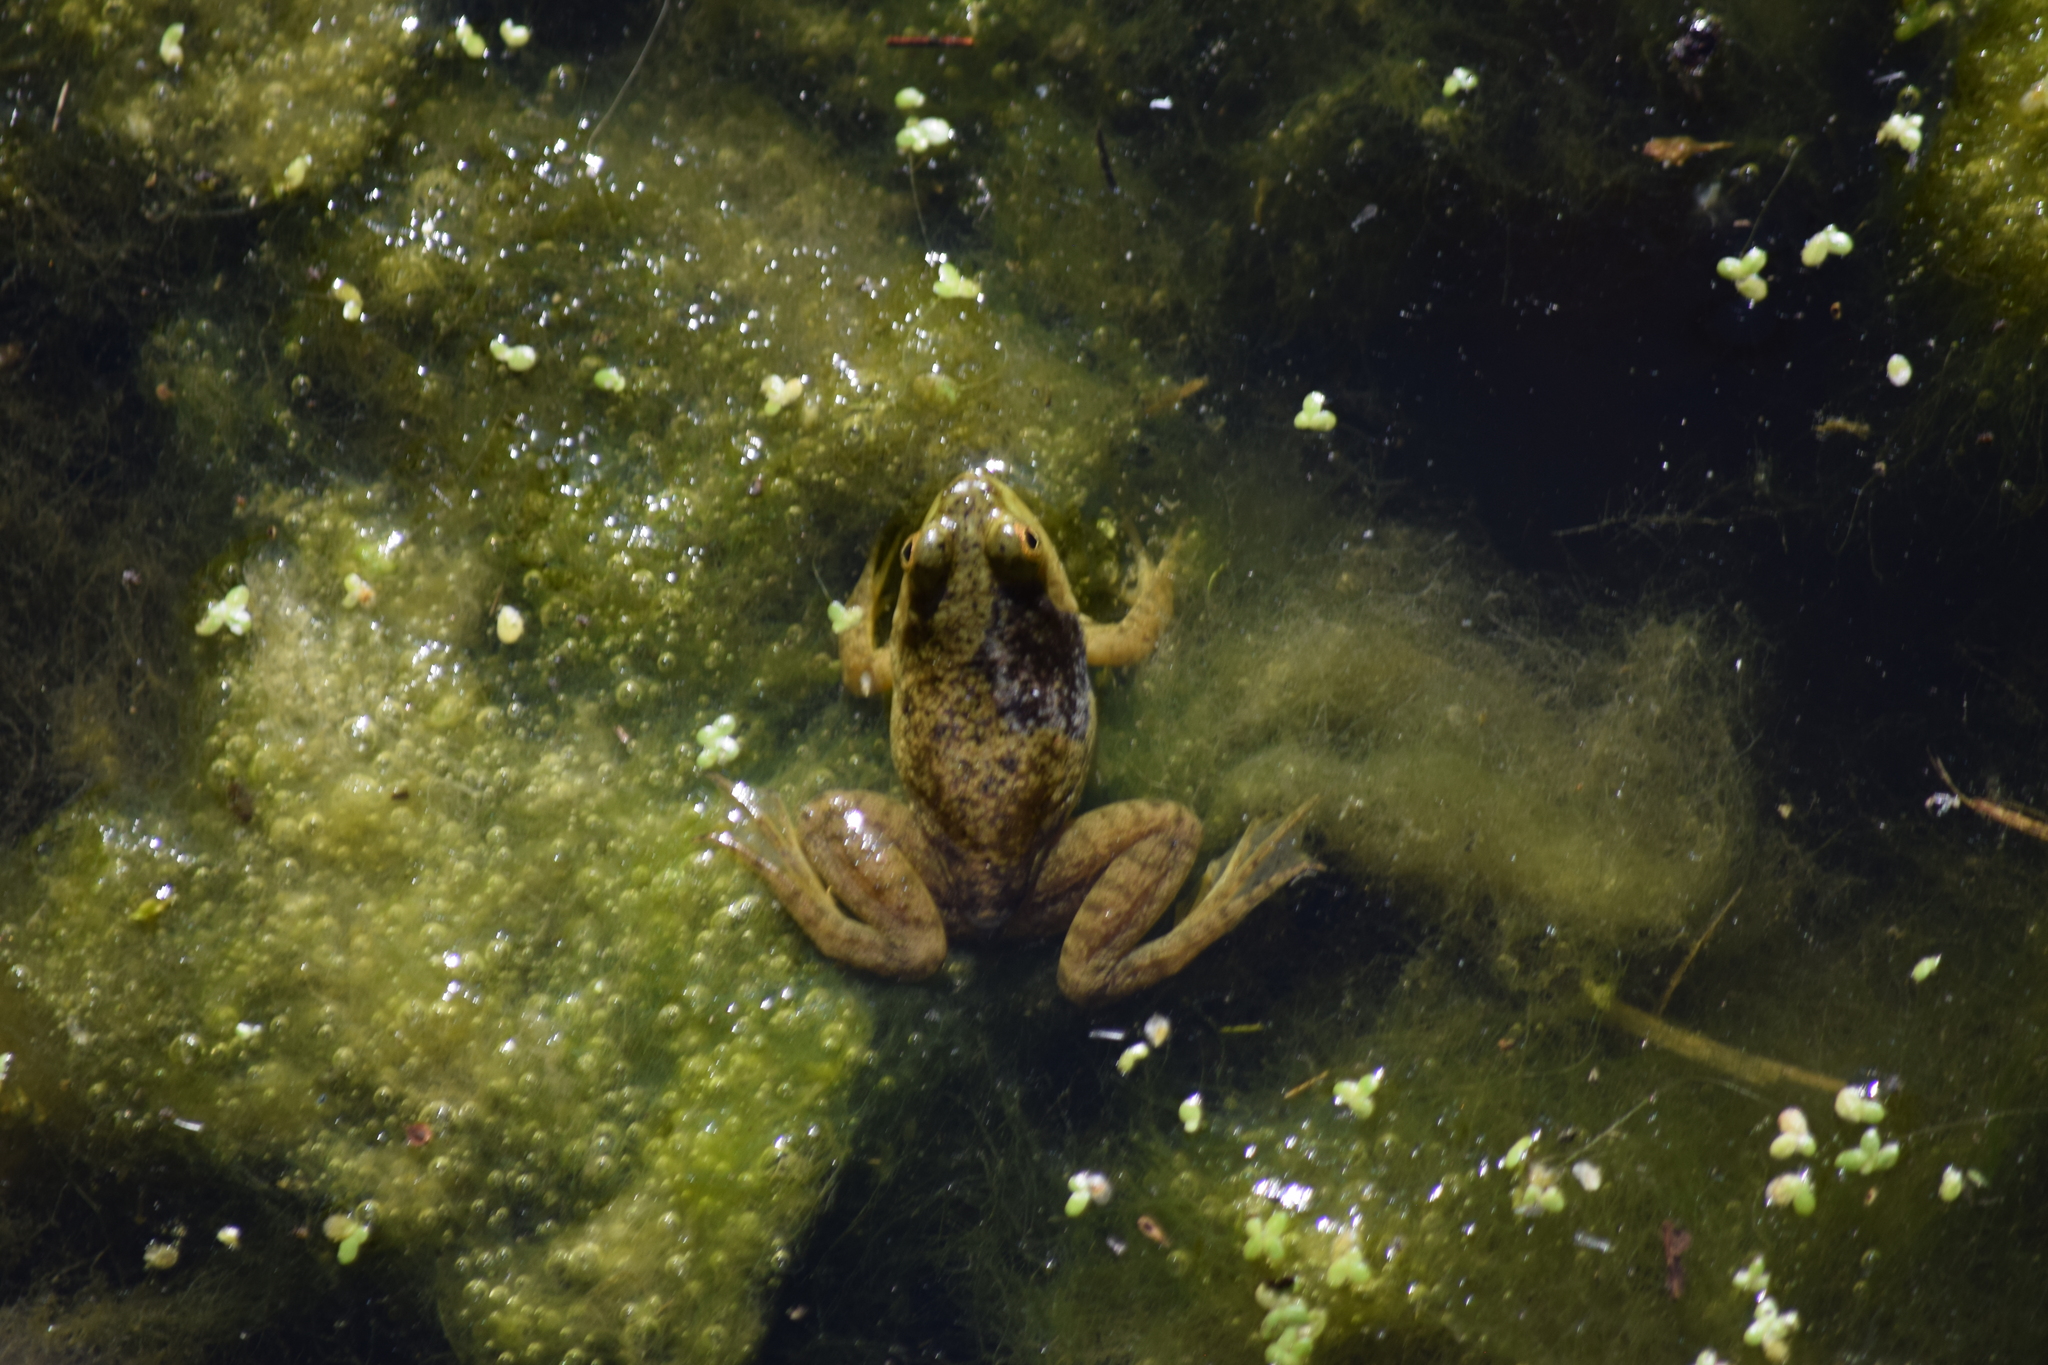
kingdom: Animalia
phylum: Chordata
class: Amphibia
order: Anura
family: Ranidae
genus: Lithobates
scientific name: Lithobates catesbeianus
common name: American bullfrog
